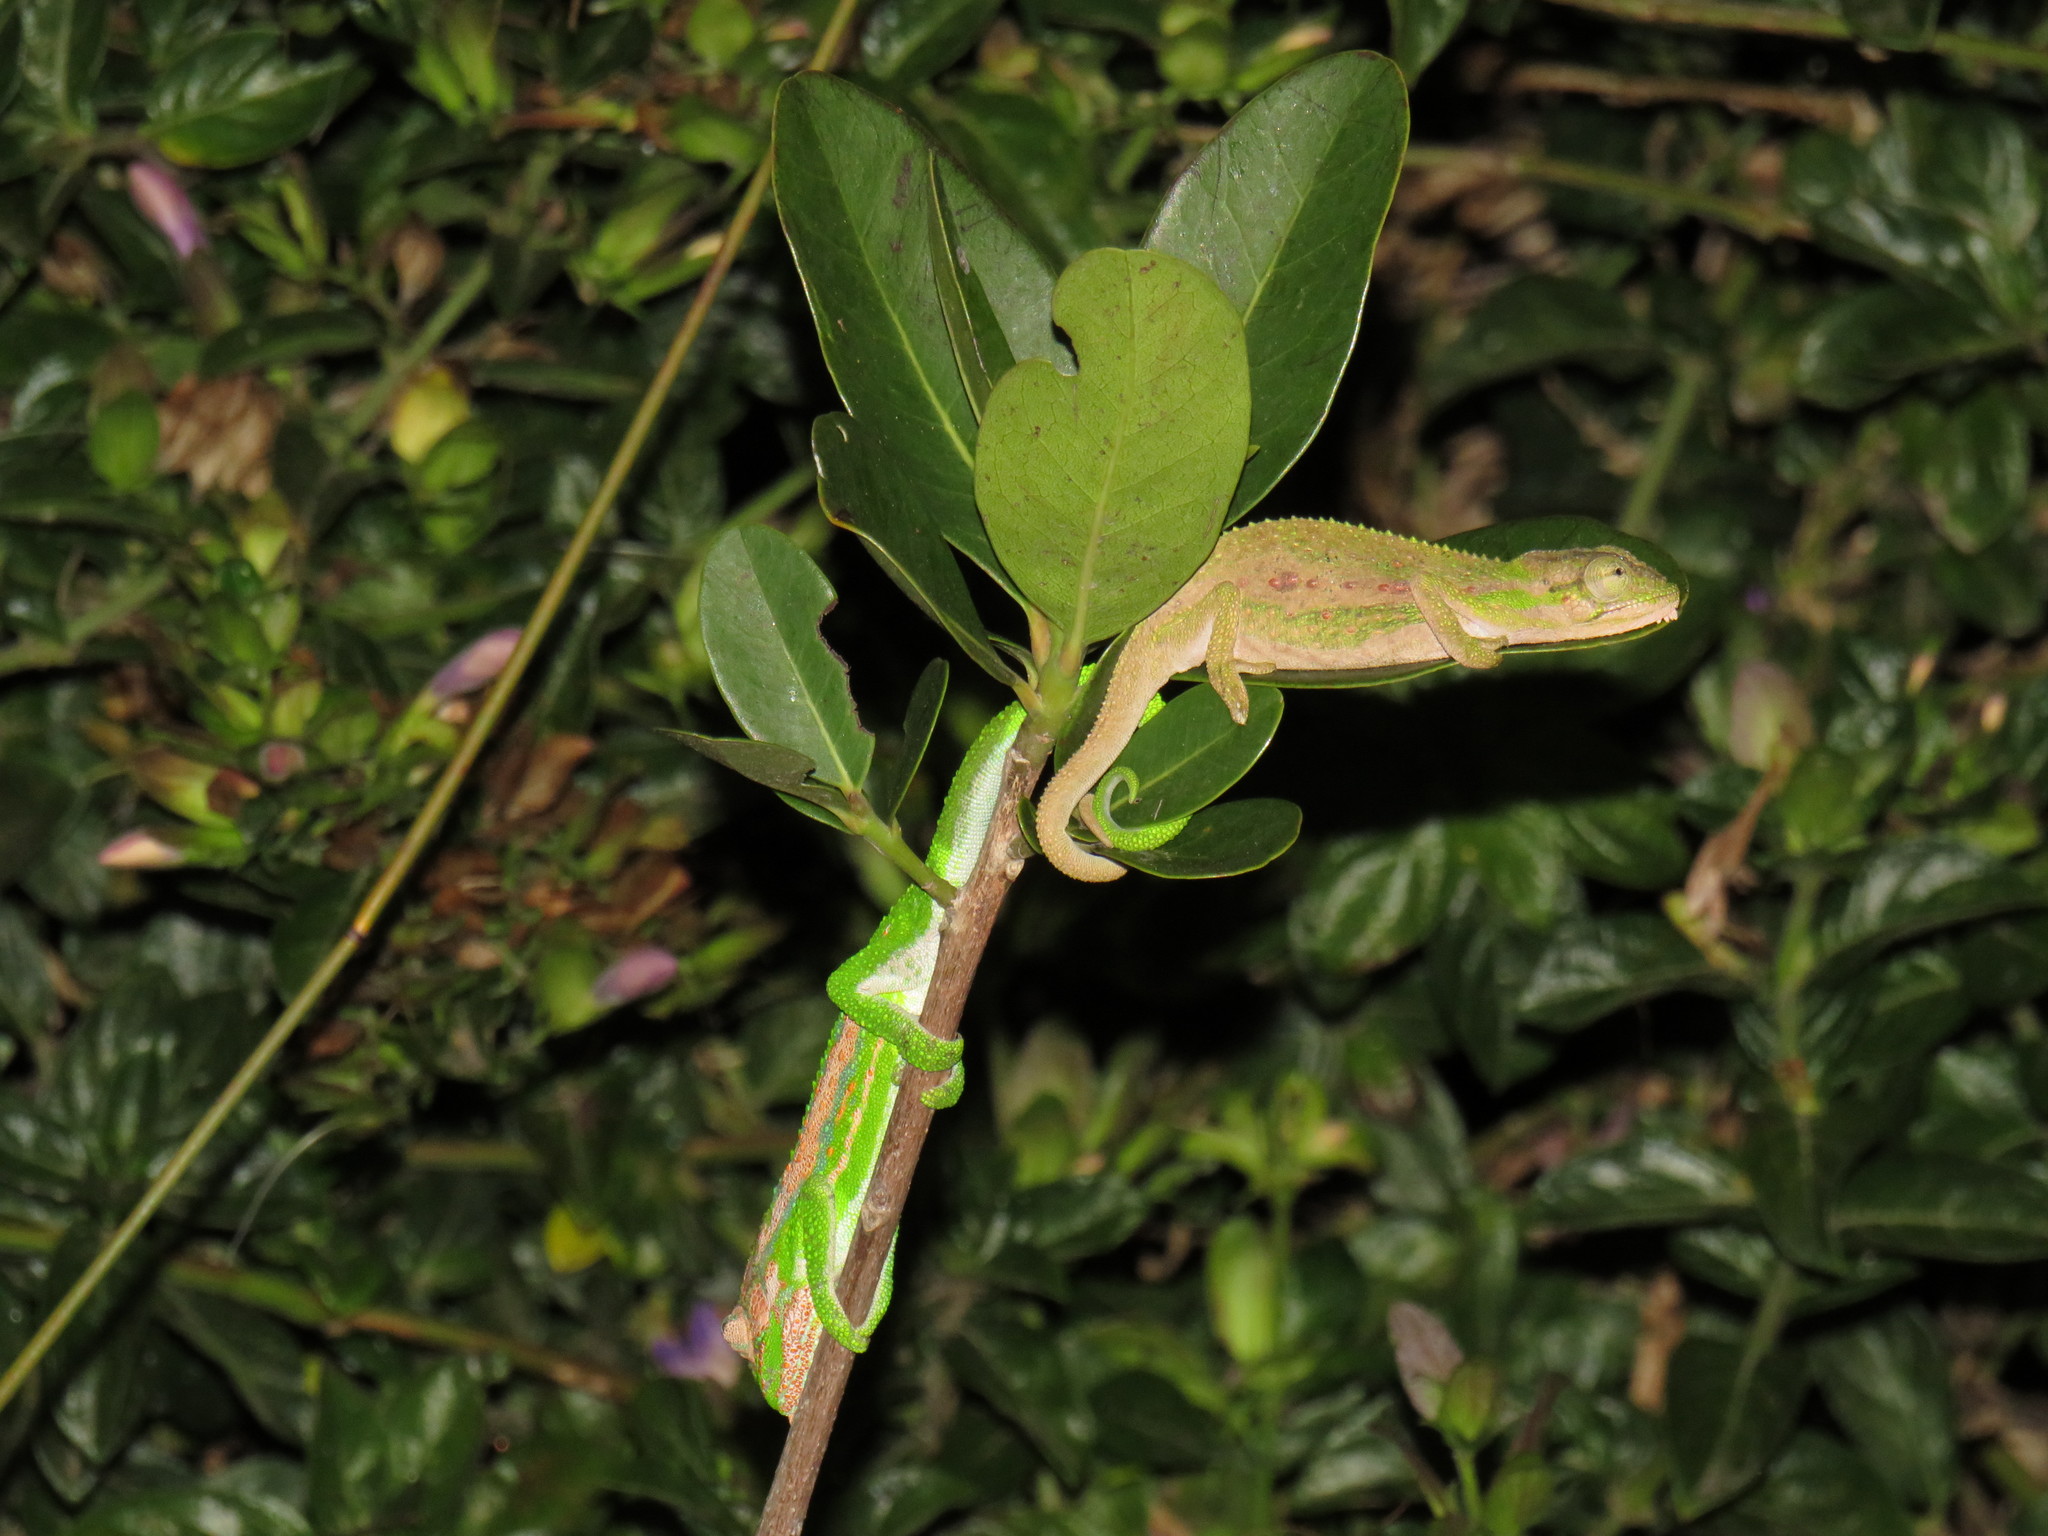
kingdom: Animalia
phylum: Chordata
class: Squamata
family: Chamaeleonidae
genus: Bradypodion
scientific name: Bradypodion pumilum
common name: Cape dwarf chameleon
